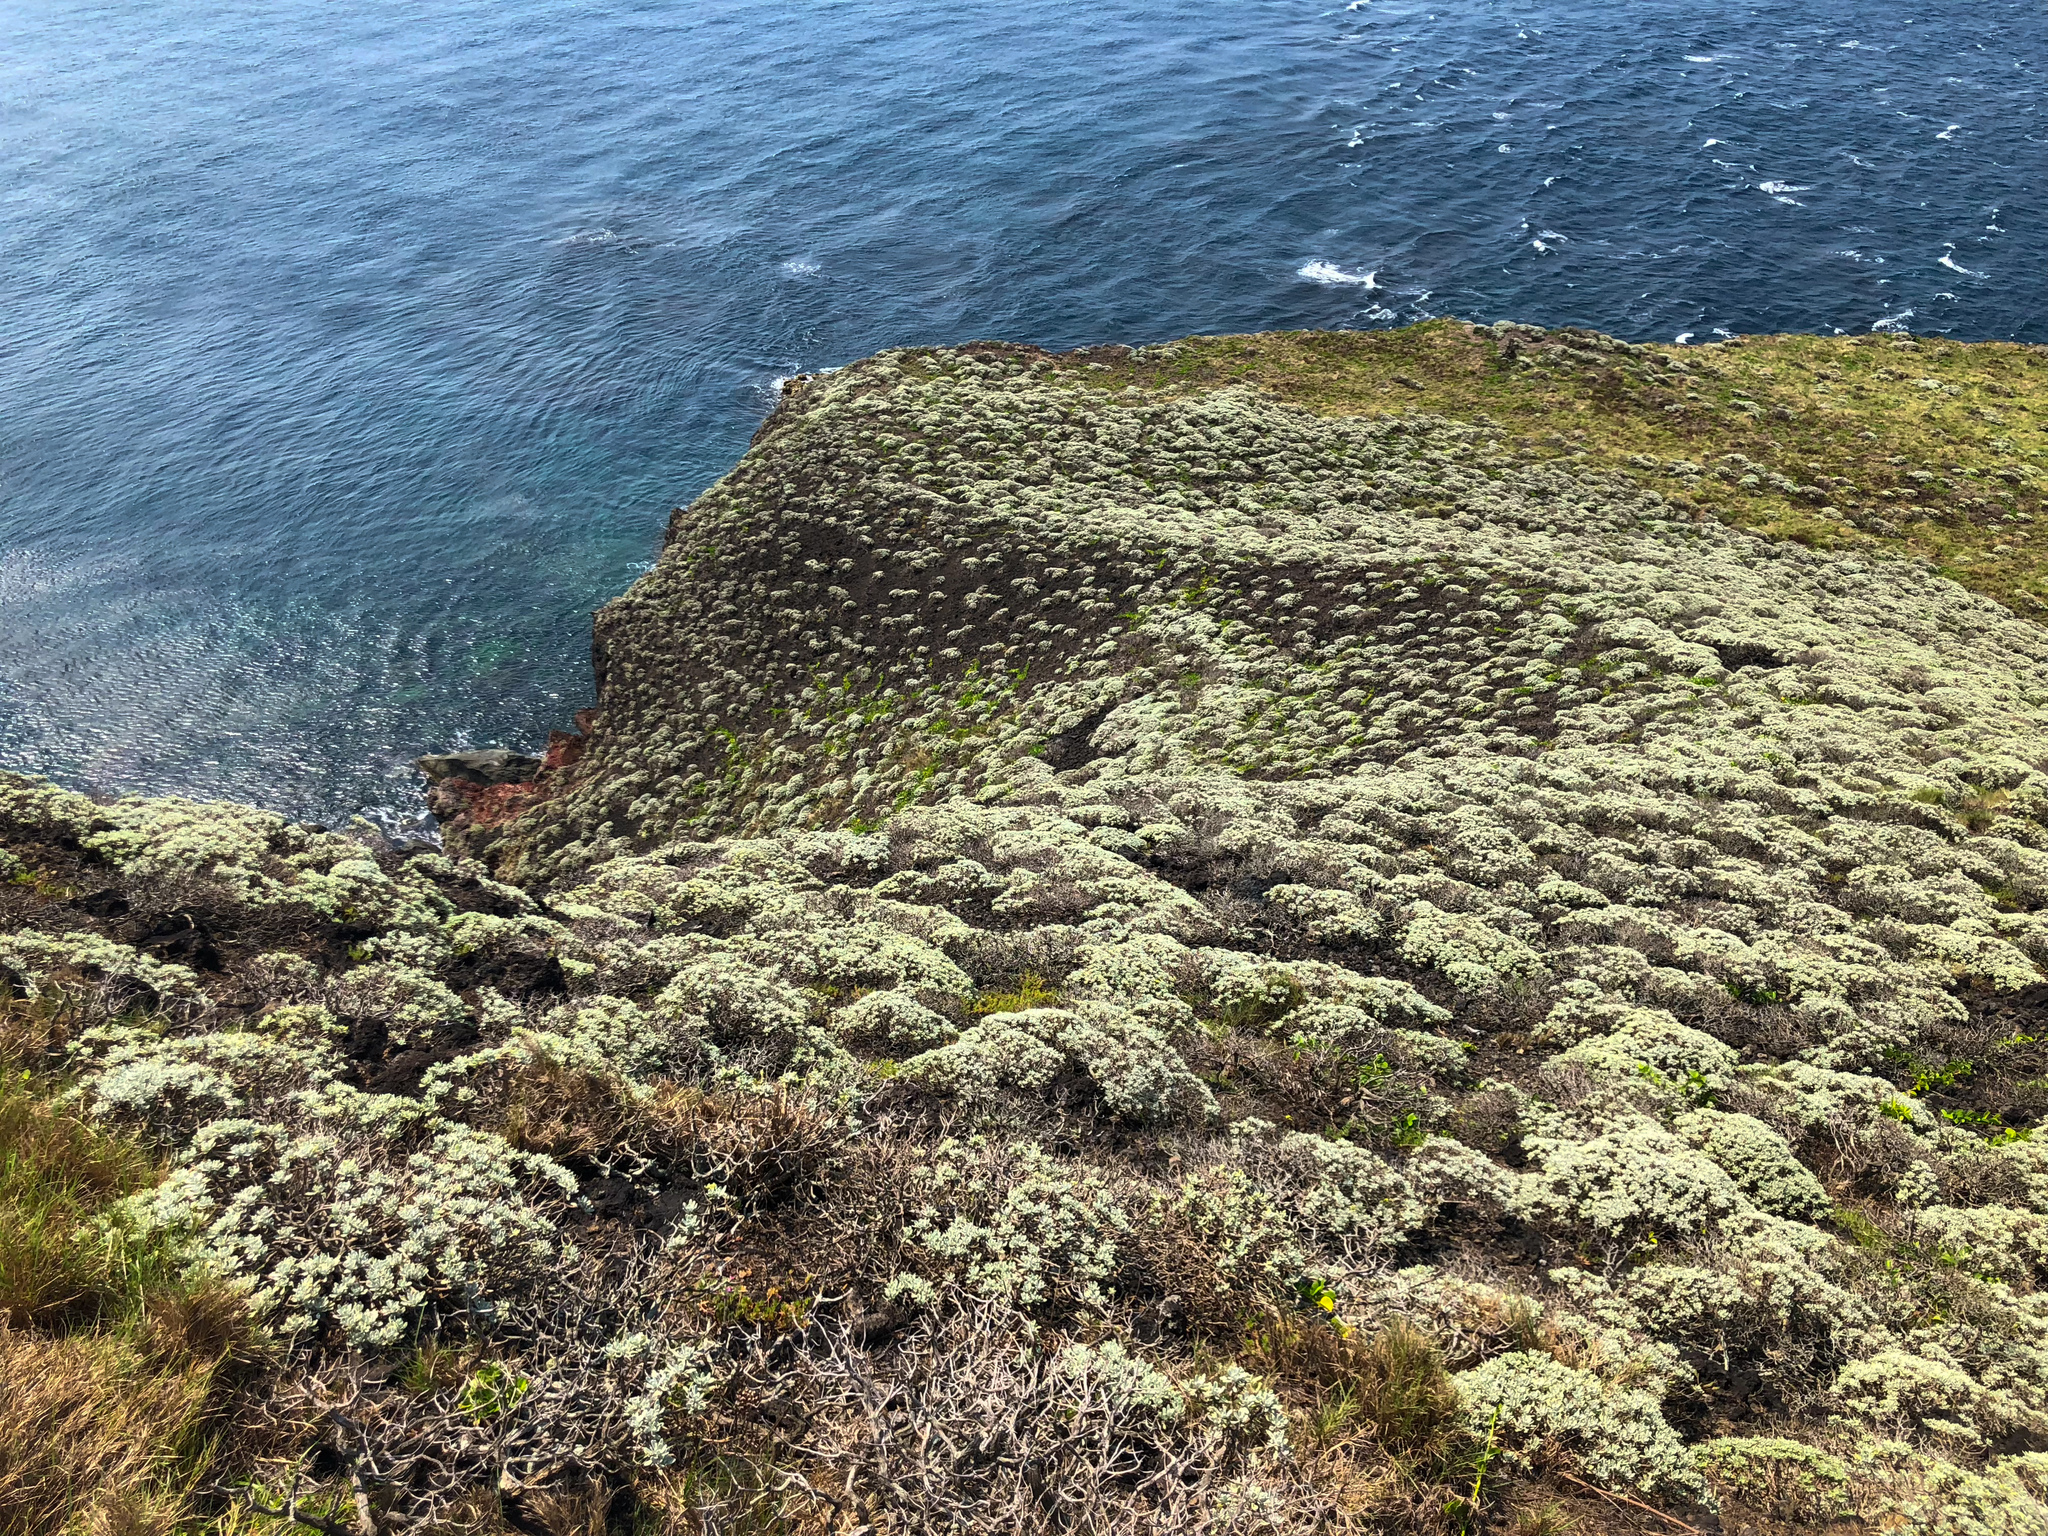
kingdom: Plantae
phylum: Tracheophyta
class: Magnoliopsida
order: Asterales
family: Asteraceae
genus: Crossostephium
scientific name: Crossostephium chinense
